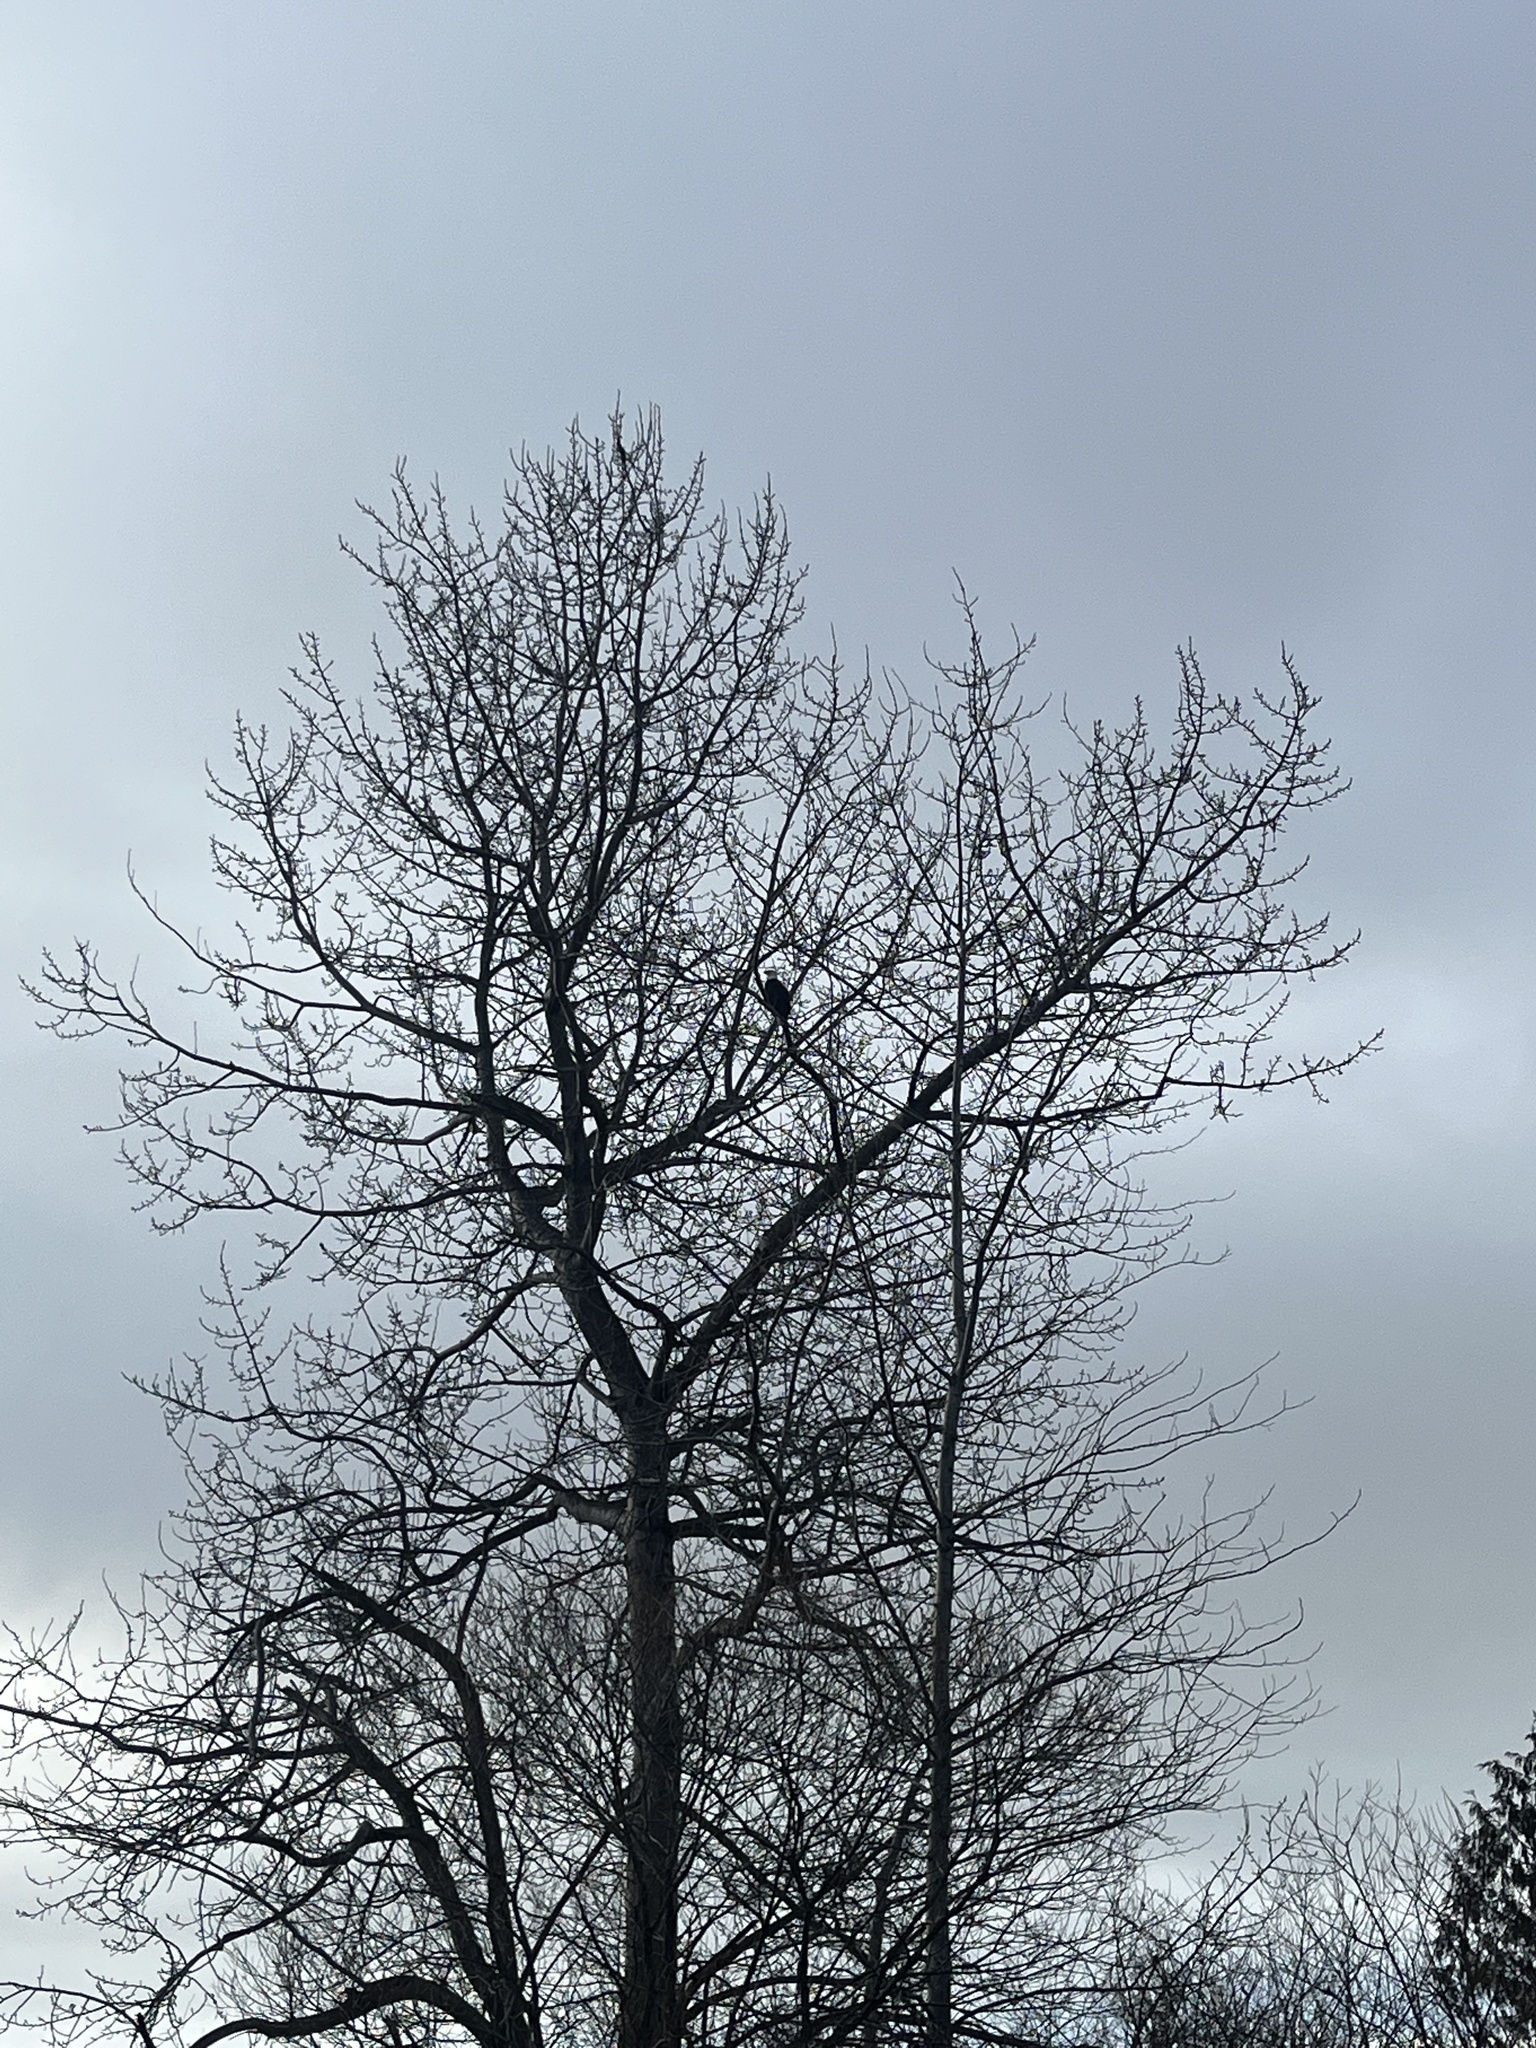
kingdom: Animalia
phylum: Chordata
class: Aves
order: Accipitriformes
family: Accipitridae
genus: Haliaeetus
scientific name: Haliaeetus leucocephalus
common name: Bald eagle
